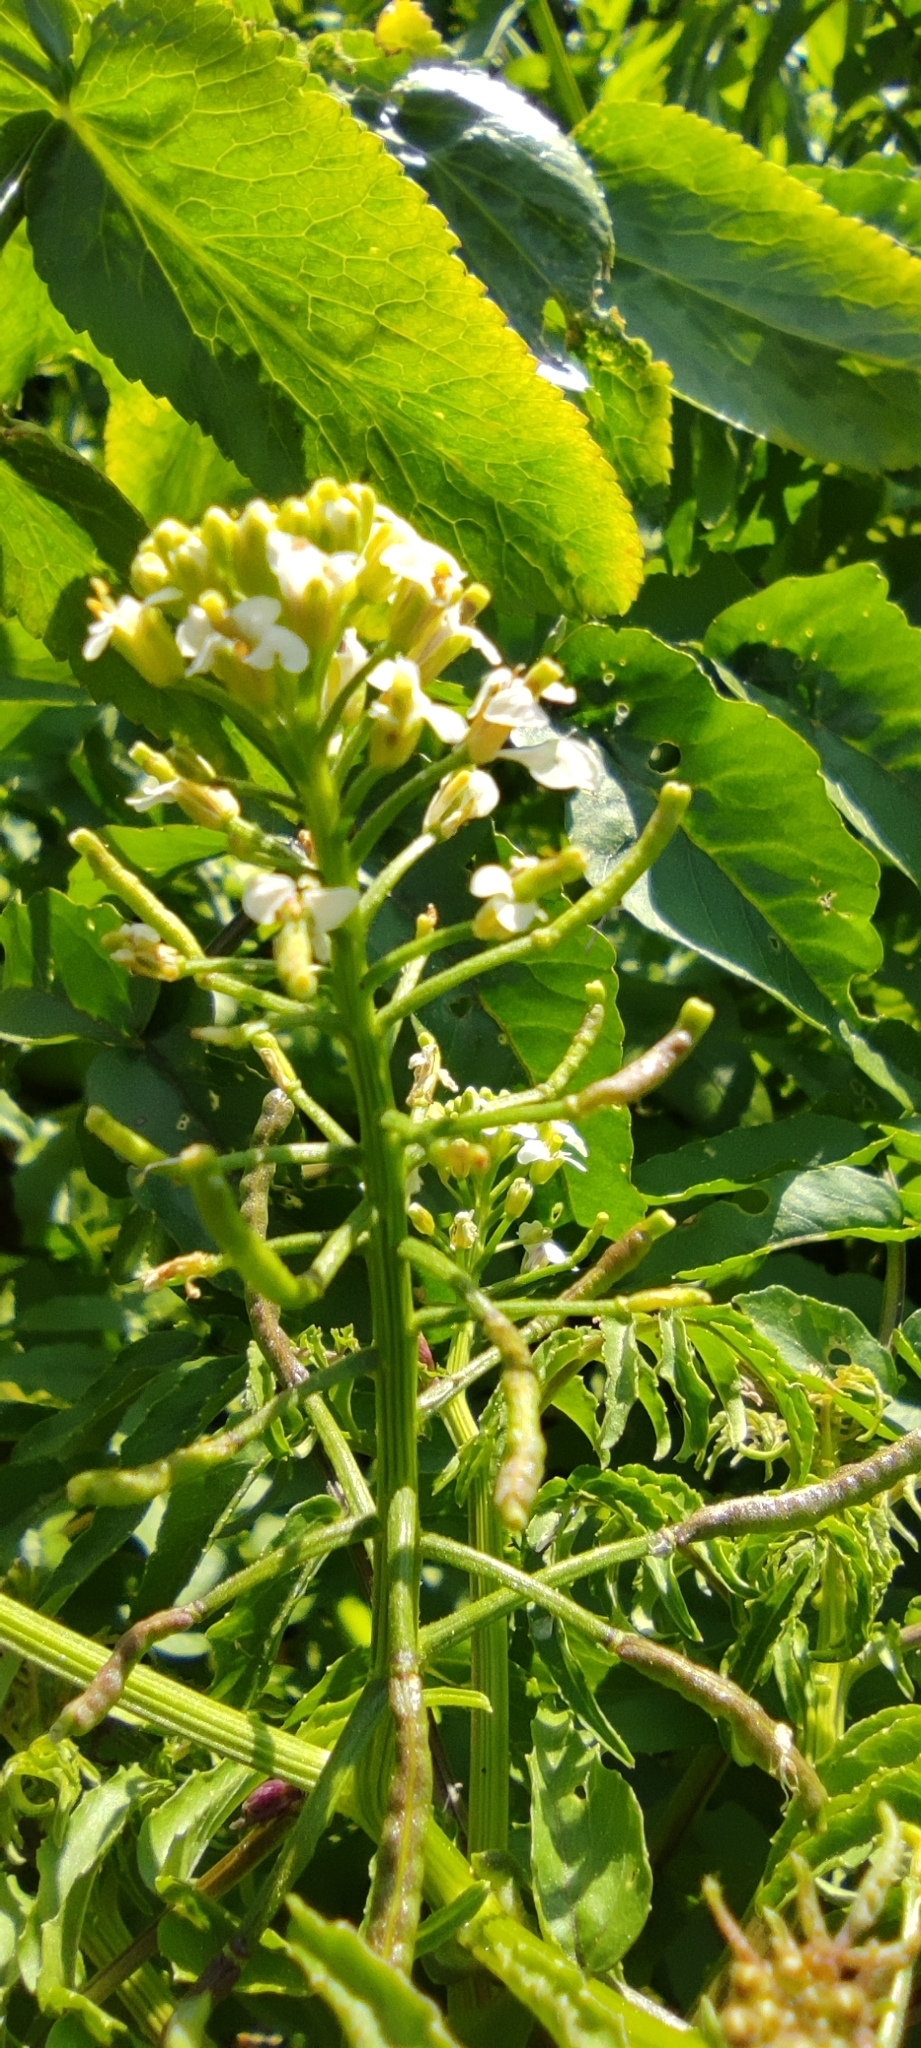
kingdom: Plantae
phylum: Tracheophyta
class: Magnoliopsida
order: Brassicales
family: Brassicaceae
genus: Nasturtium
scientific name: Nasturtium officinale
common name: Watercress
